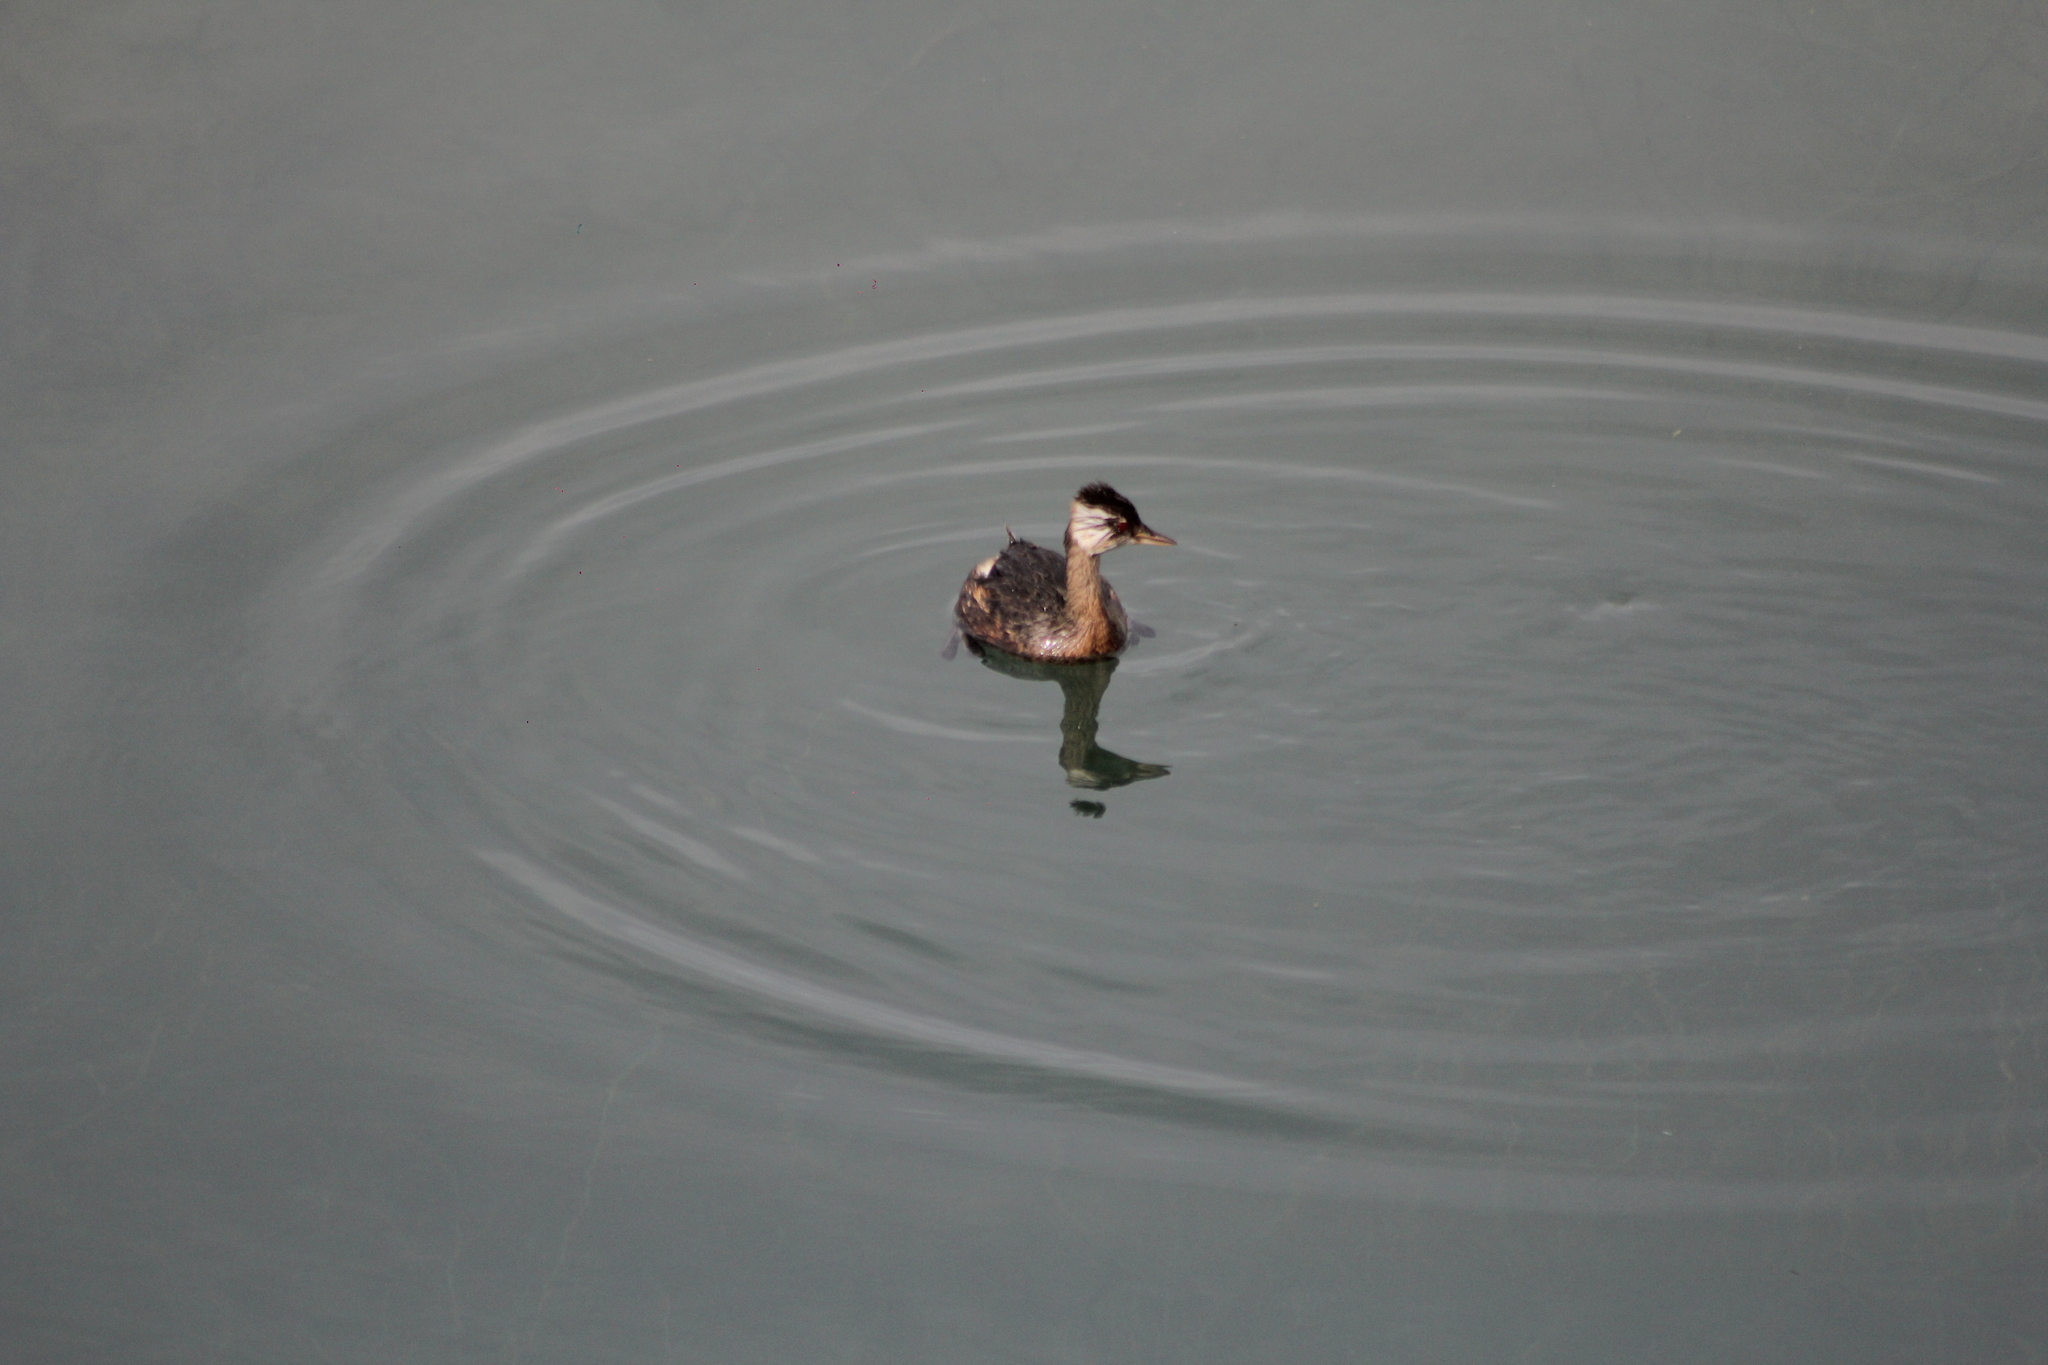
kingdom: Animalia
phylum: Chordata
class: Aves
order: Podicipediformes
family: Podicipedidae
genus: Rollandia
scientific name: Rollandia rolland
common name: White-tufted grebe
